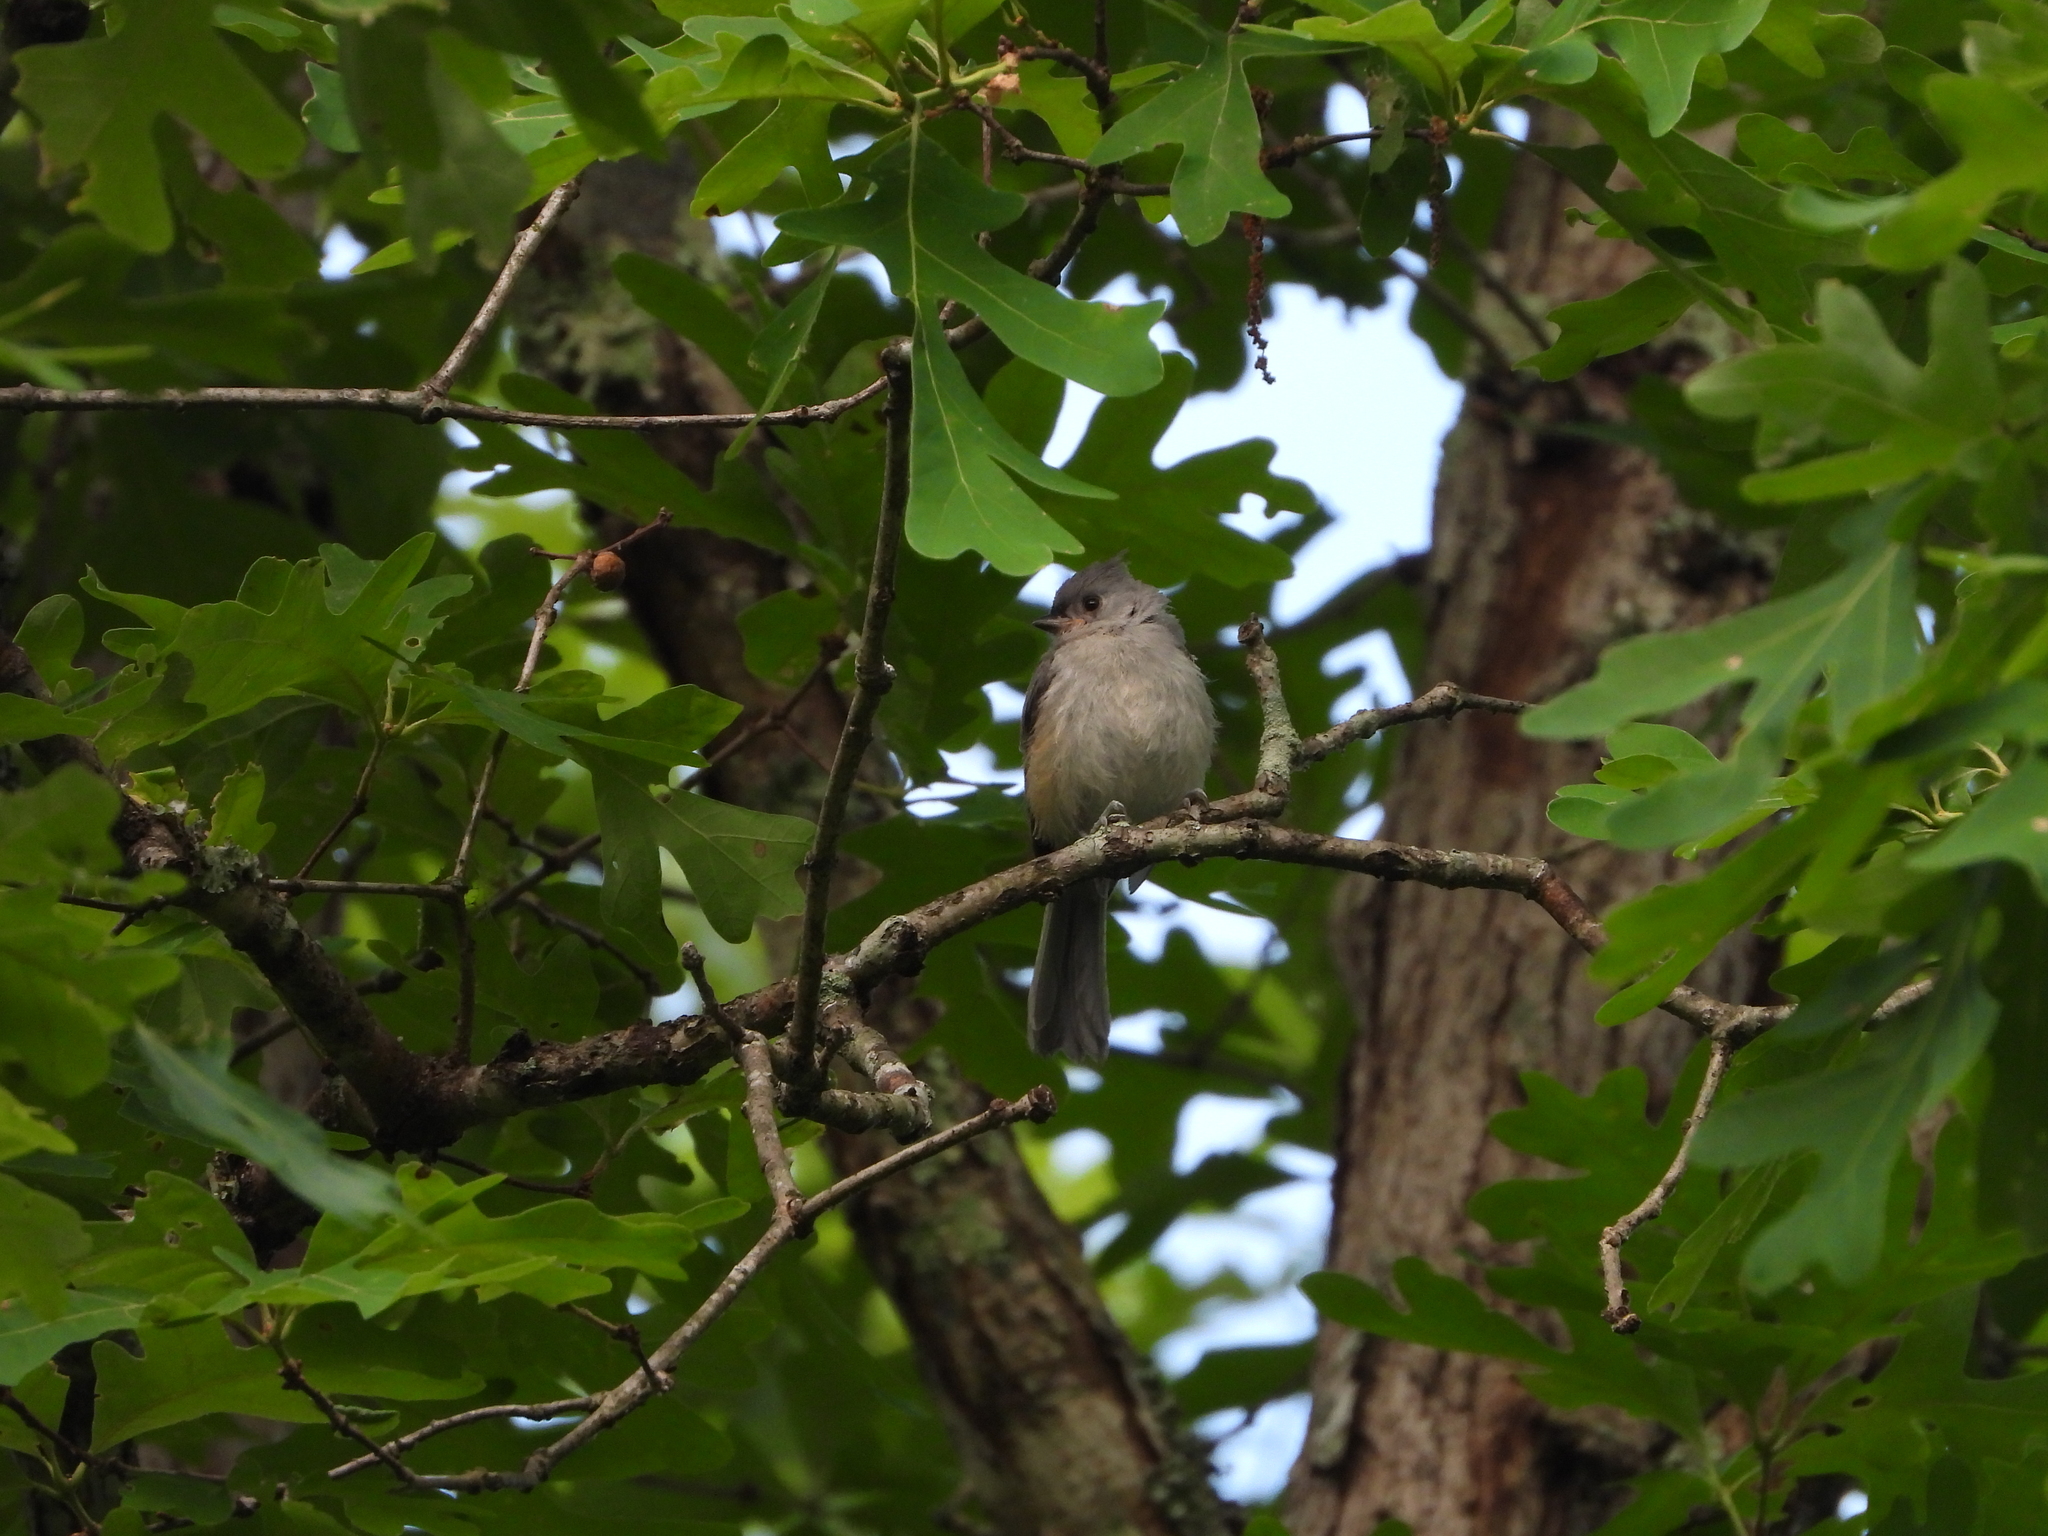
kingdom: Animalia
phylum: Chordata
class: Aves
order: Passeriformes
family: Paridae
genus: Baeolophus
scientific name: Baeolophus bicolor
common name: Tufted titmouse
